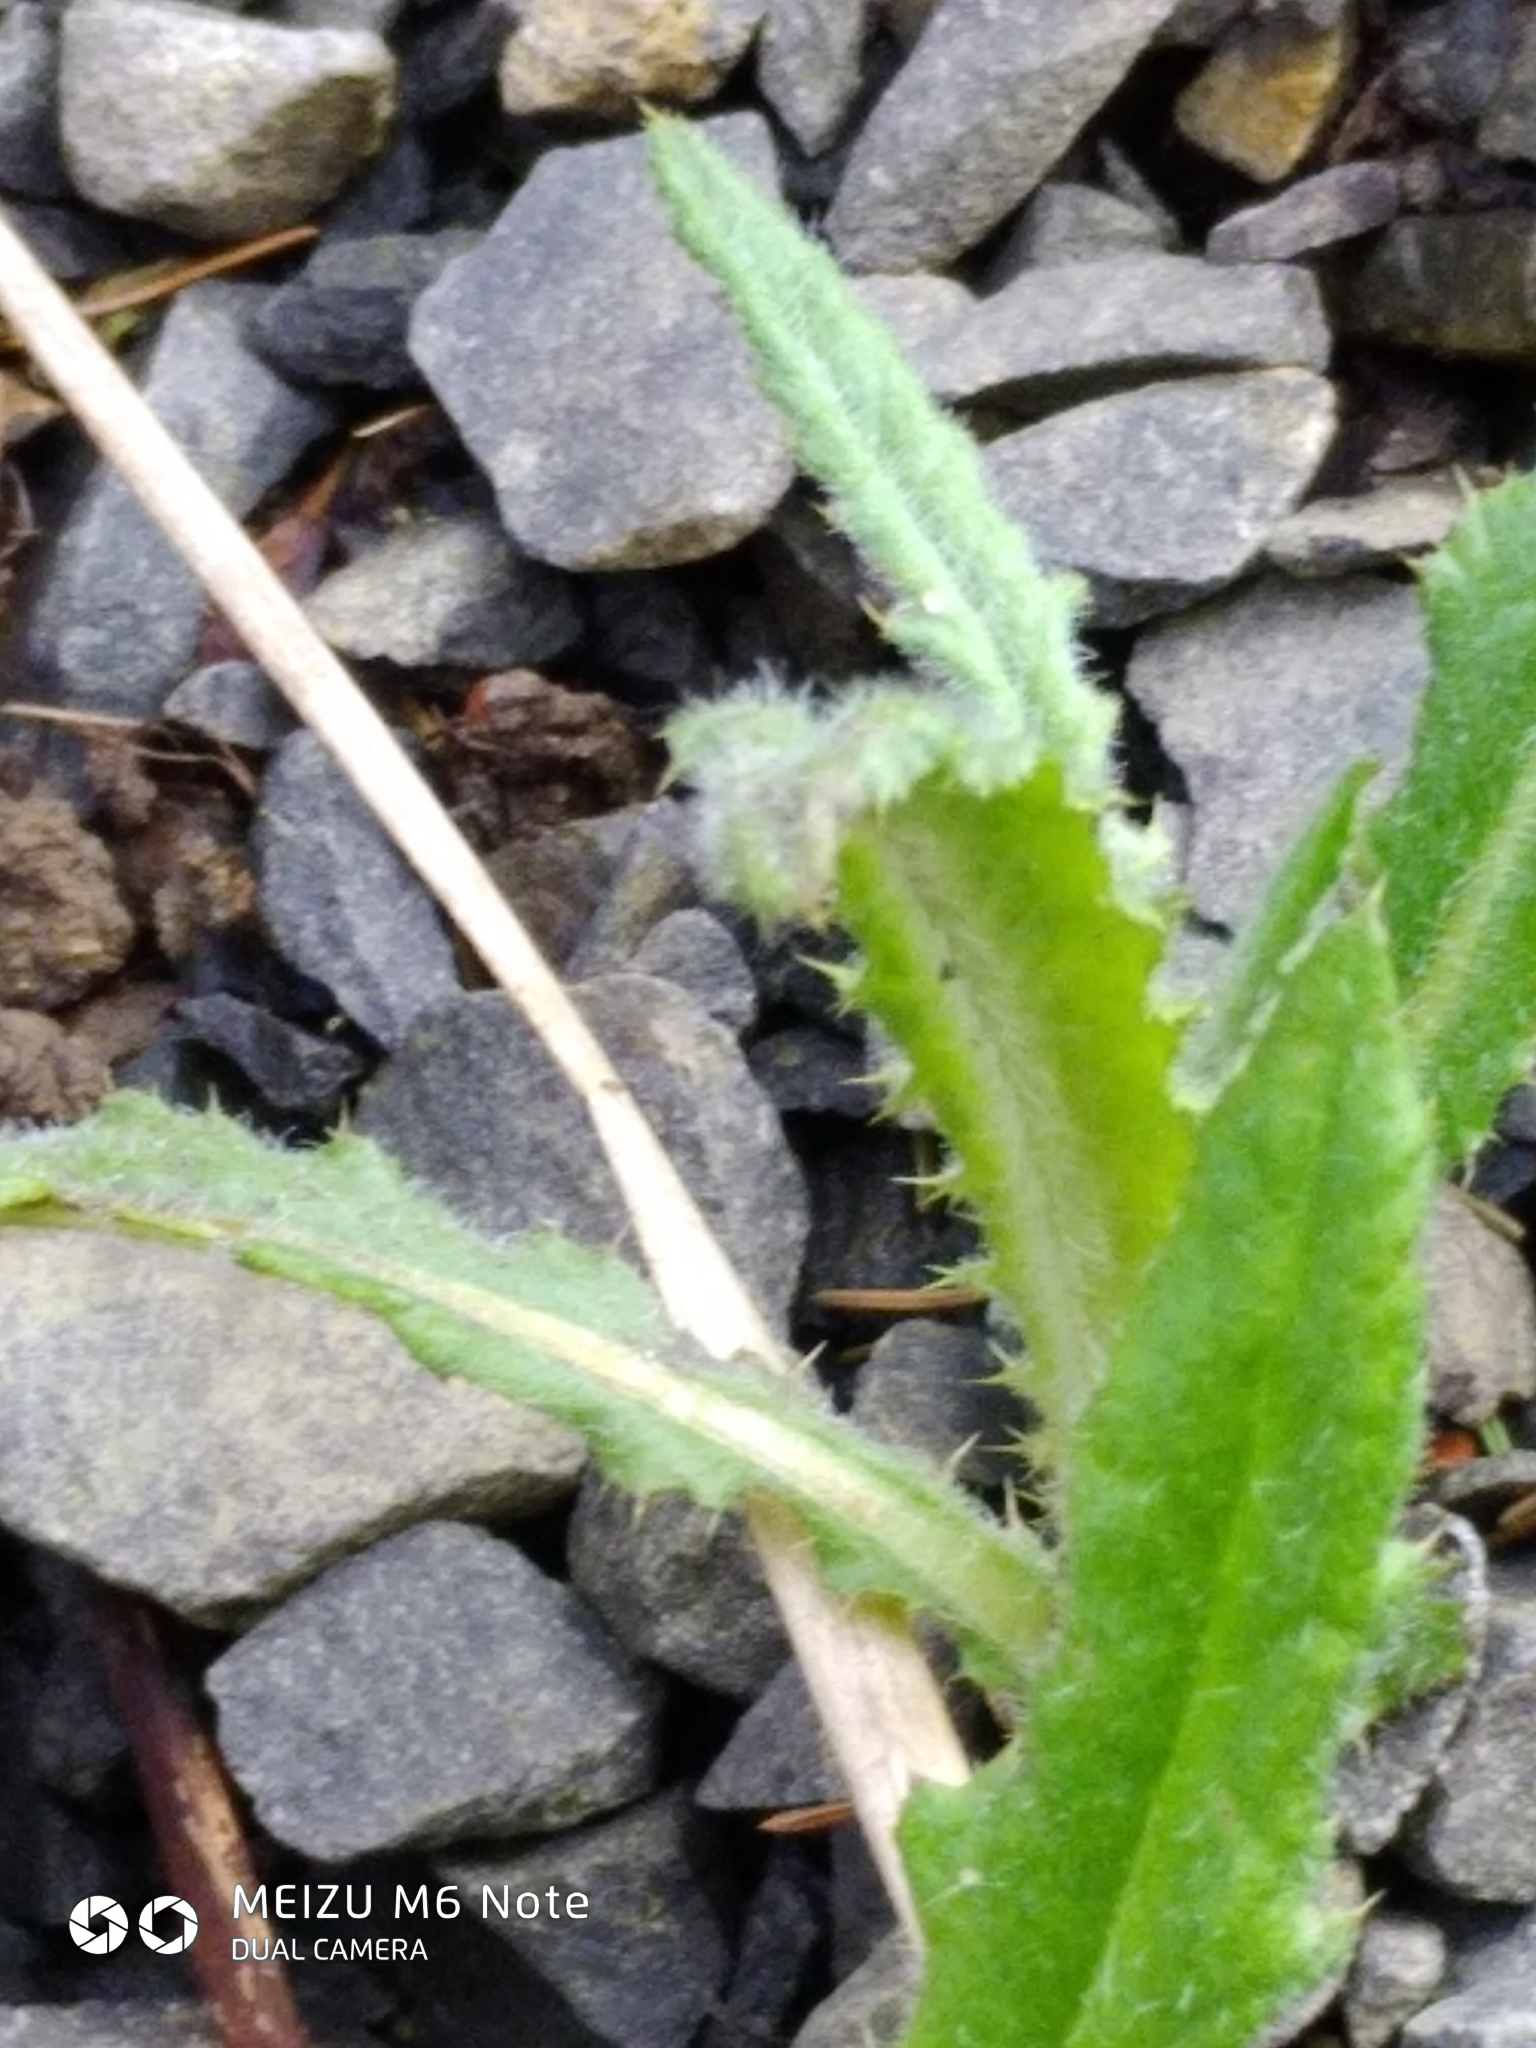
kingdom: Plantae
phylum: Tracheophyta
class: Magnoliopsida
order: Asterales
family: Asteraceae
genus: Cirsium
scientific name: Cirsium arvense
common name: Creeping thistle
